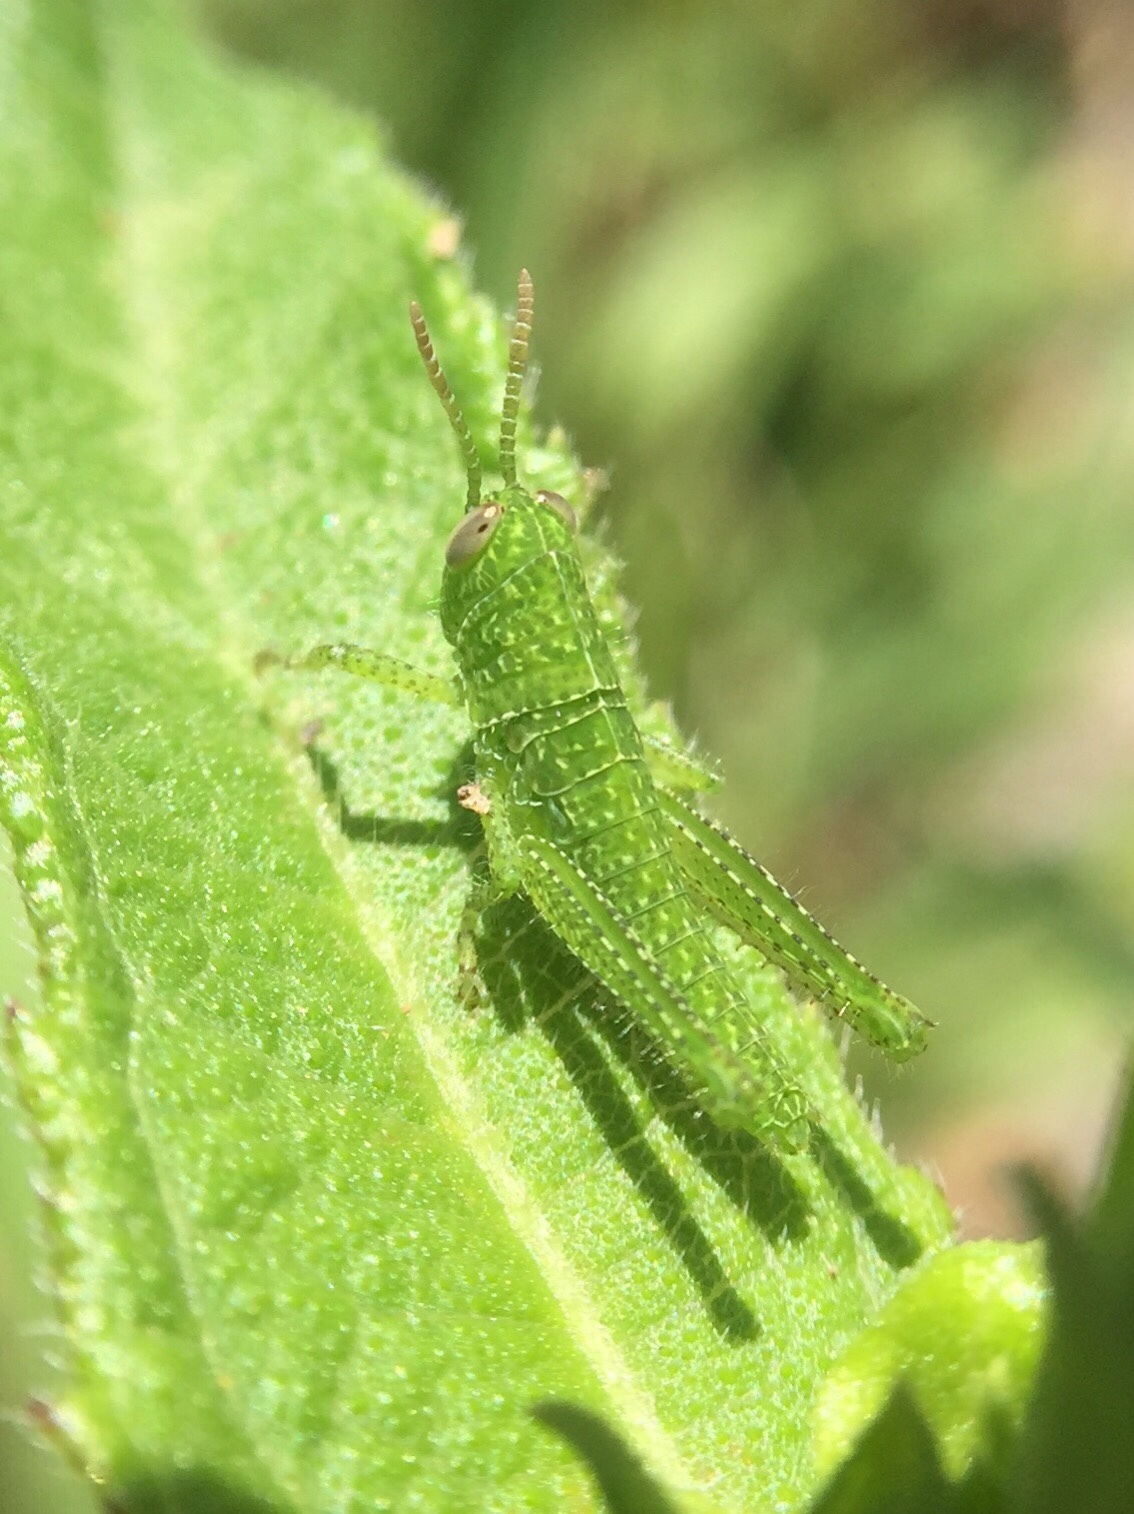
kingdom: Animalia
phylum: Arthropoda
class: Insecta
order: Orthoptera
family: Acrididae
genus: Schistocerca
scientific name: Schistocerca flavofasciata
